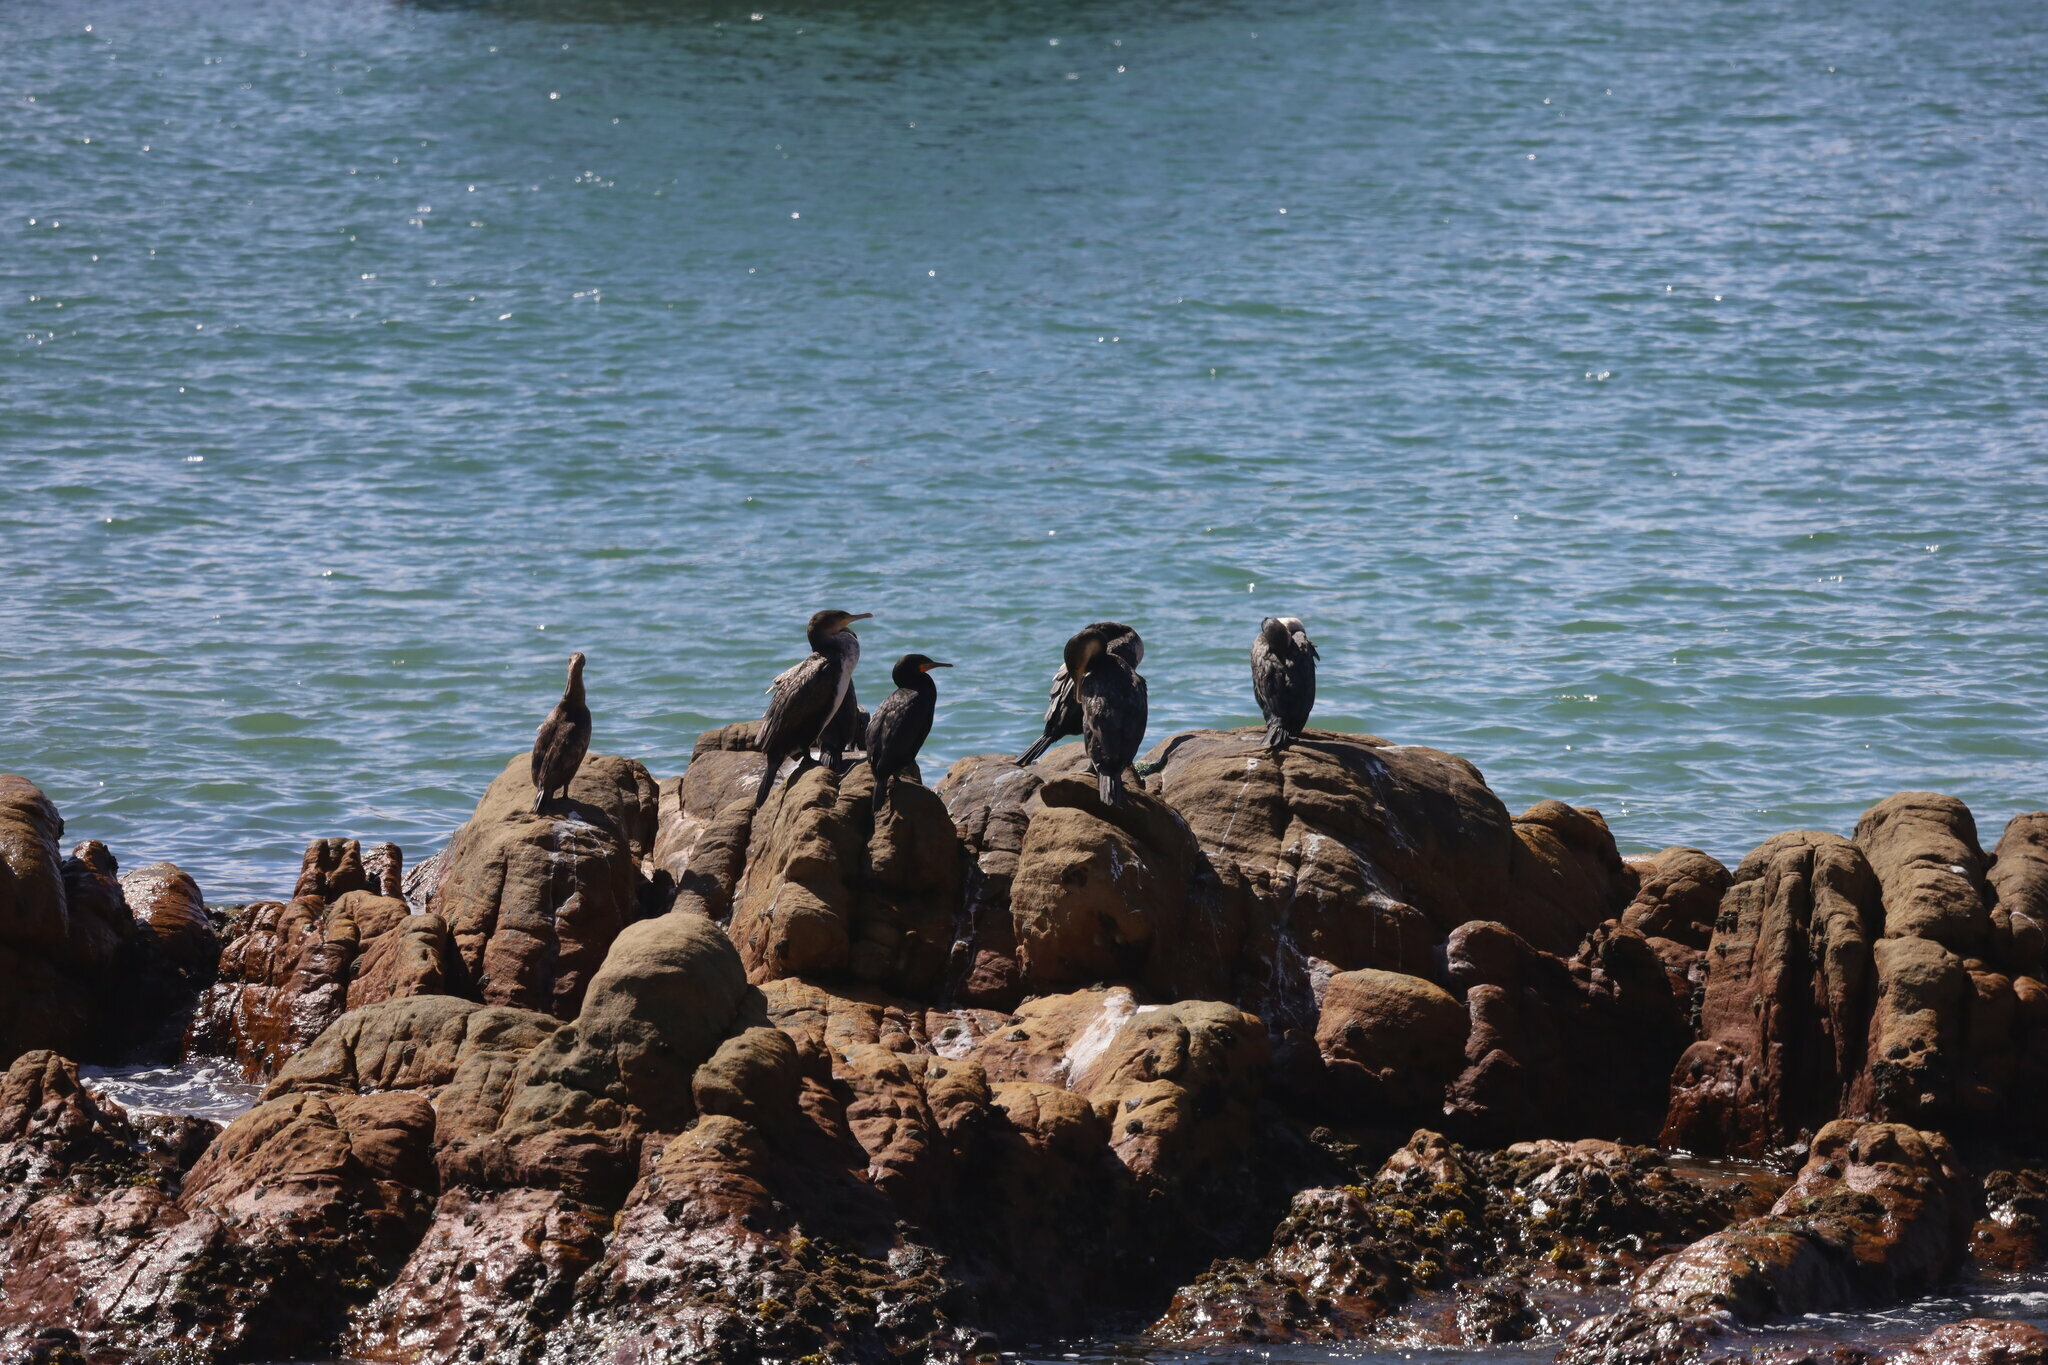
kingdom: Animalia
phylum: Chordata
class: Aves
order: Suliformes
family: Phalacrocoracidae
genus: Phalacrocorax
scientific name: Phalacrocorax capensis
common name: Cape cormorant
